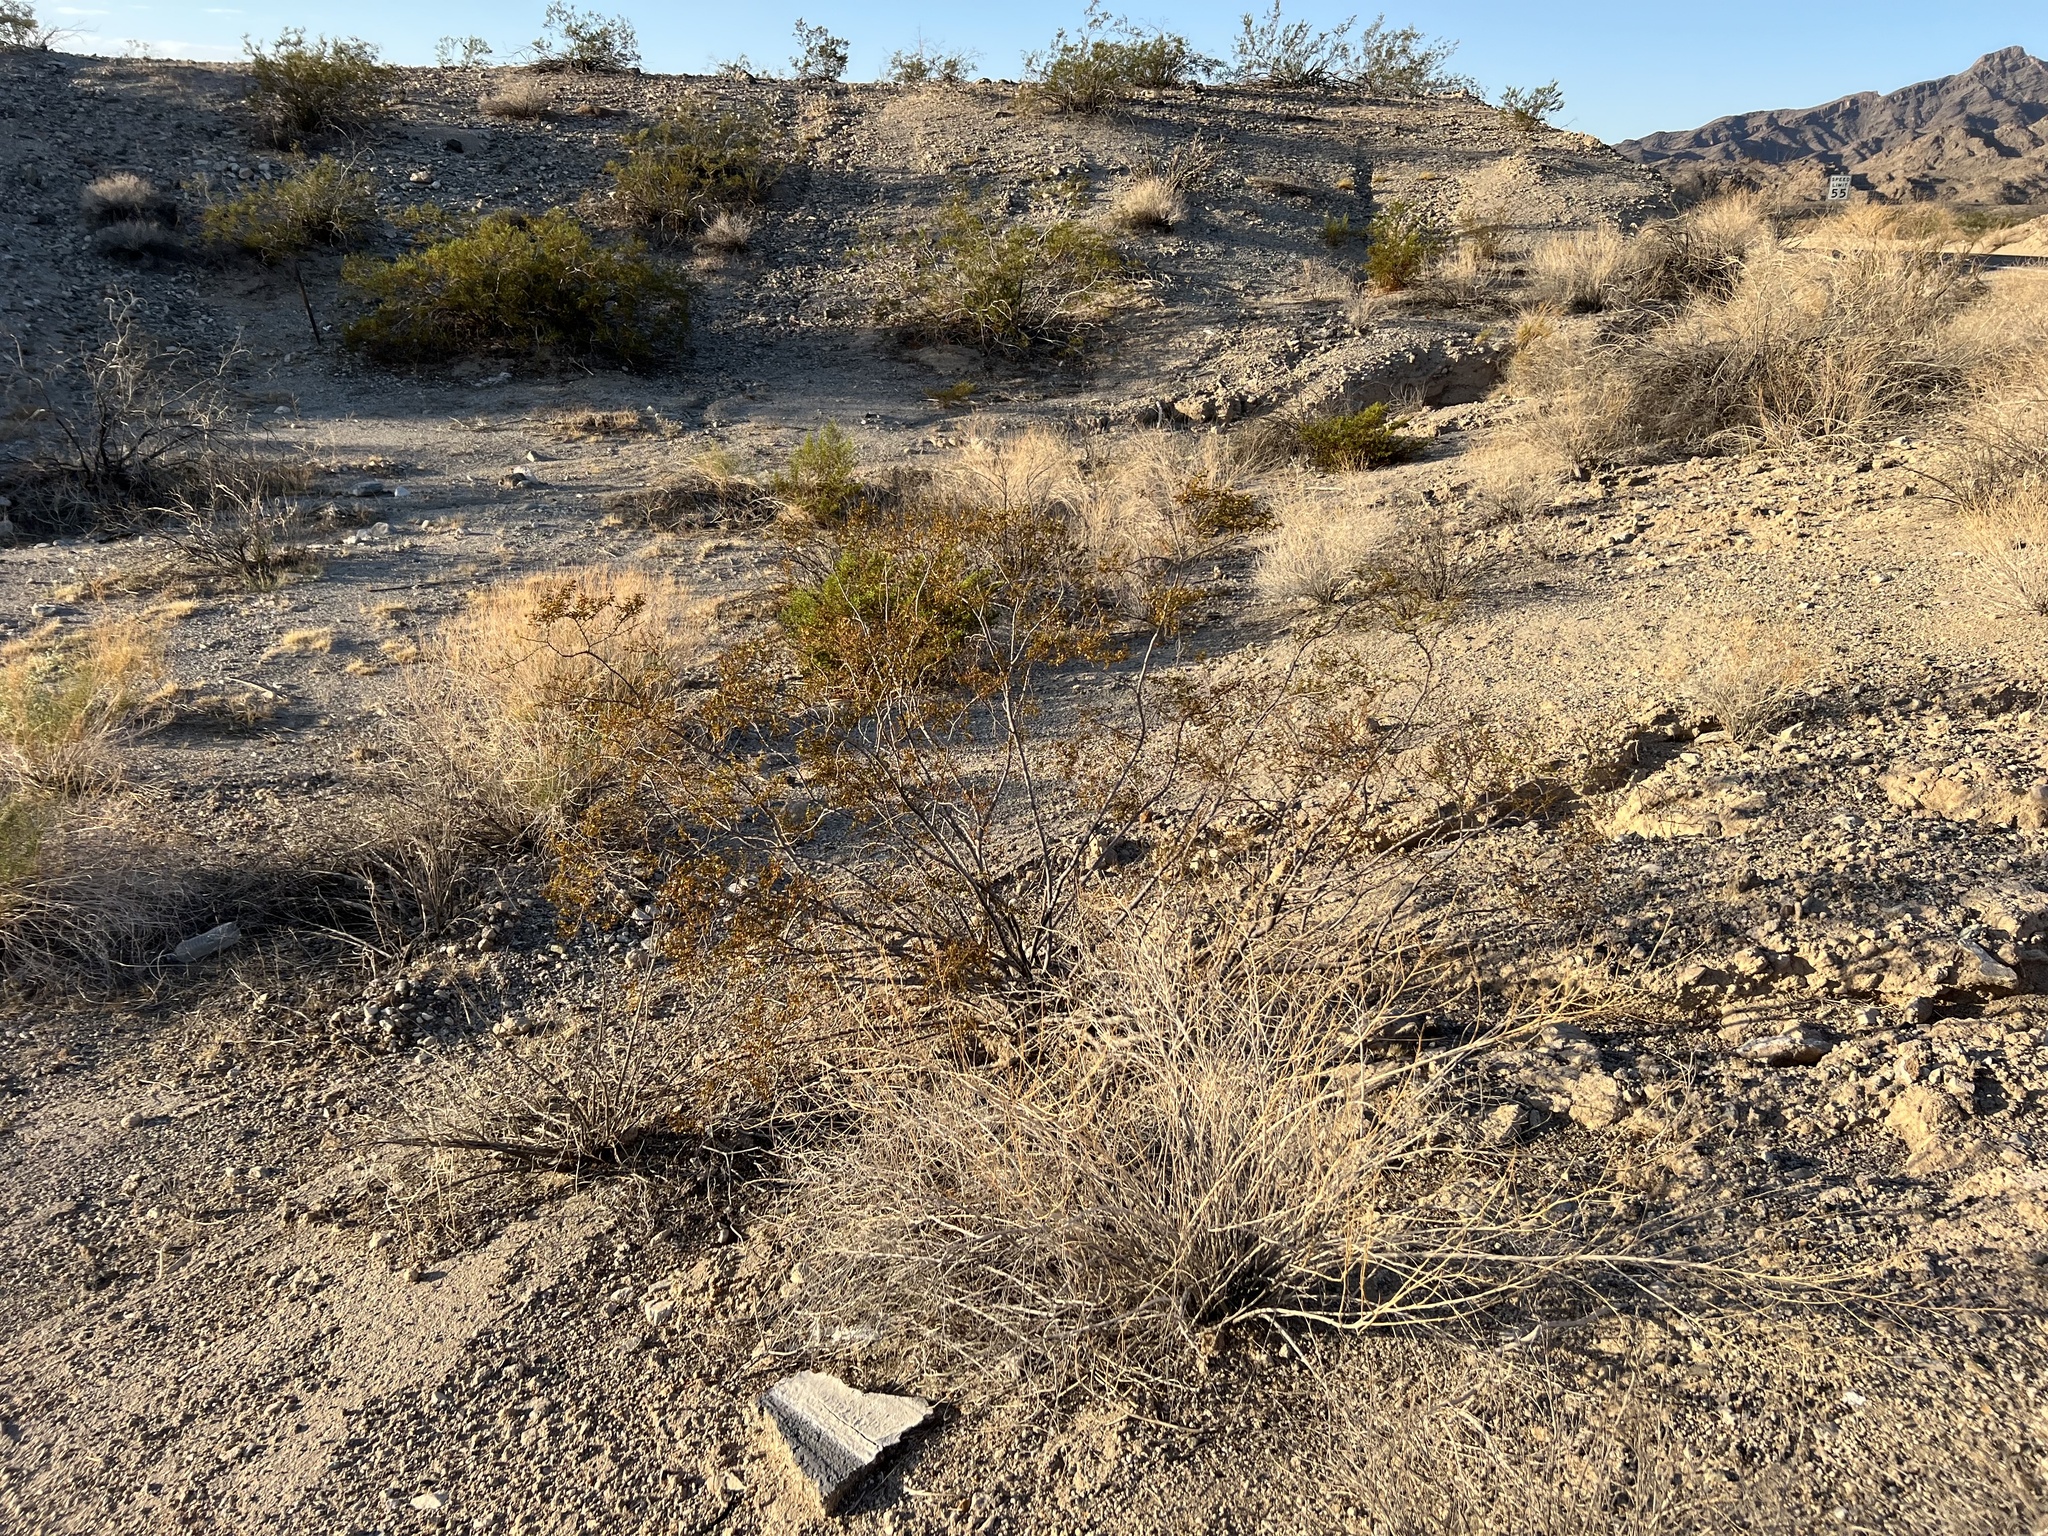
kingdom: Plantae
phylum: Tracheophyta
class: Magnoliopsida
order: Zygophyllales
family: Zygophyllaceae
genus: Larrea
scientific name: Larrea tridentata
